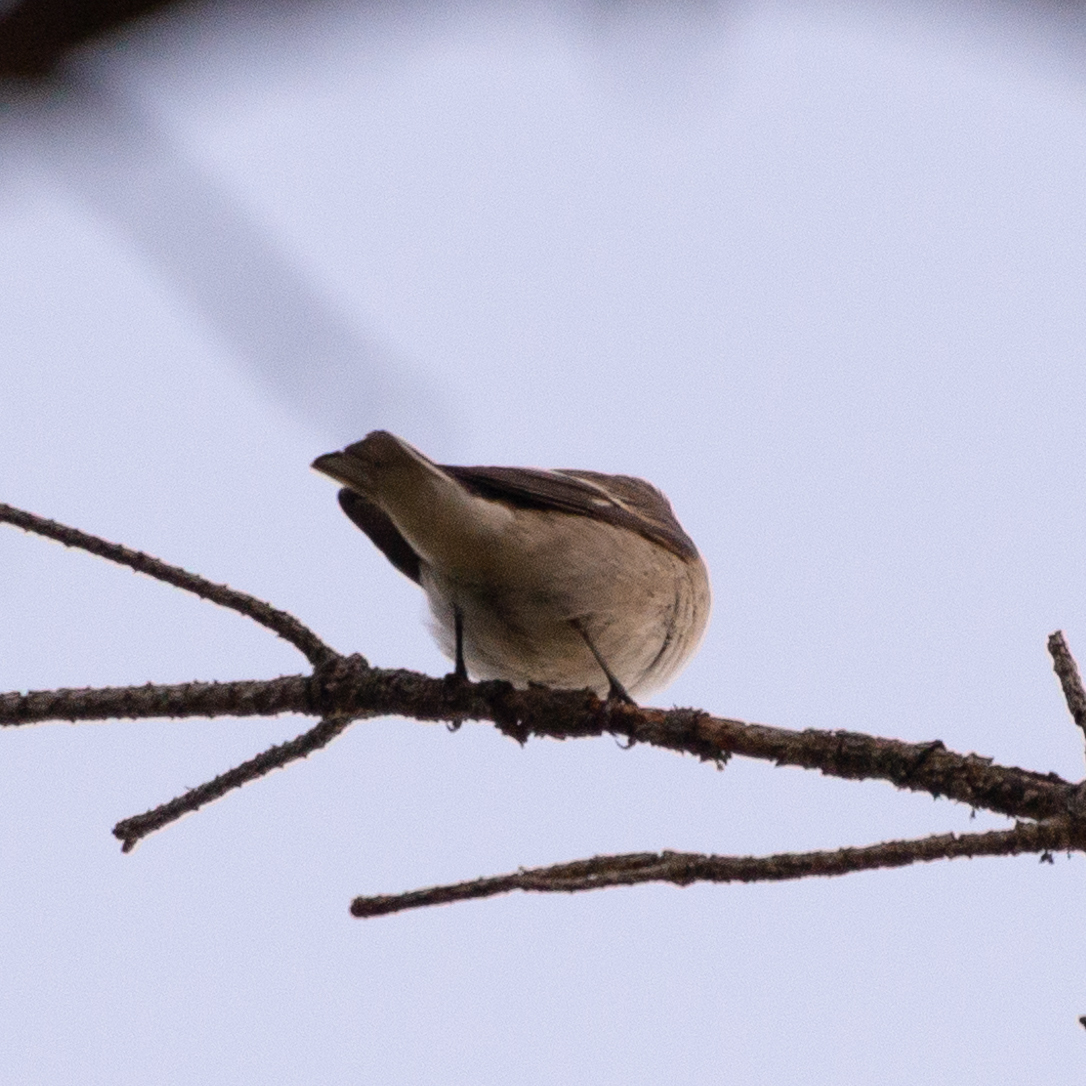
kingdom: Animalia
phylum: Chordata
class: Aves
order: Passeriformes
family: Muscicapidae
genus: Ficedula
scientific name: Ficedula hypoleuca
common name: European pied flycatcher
